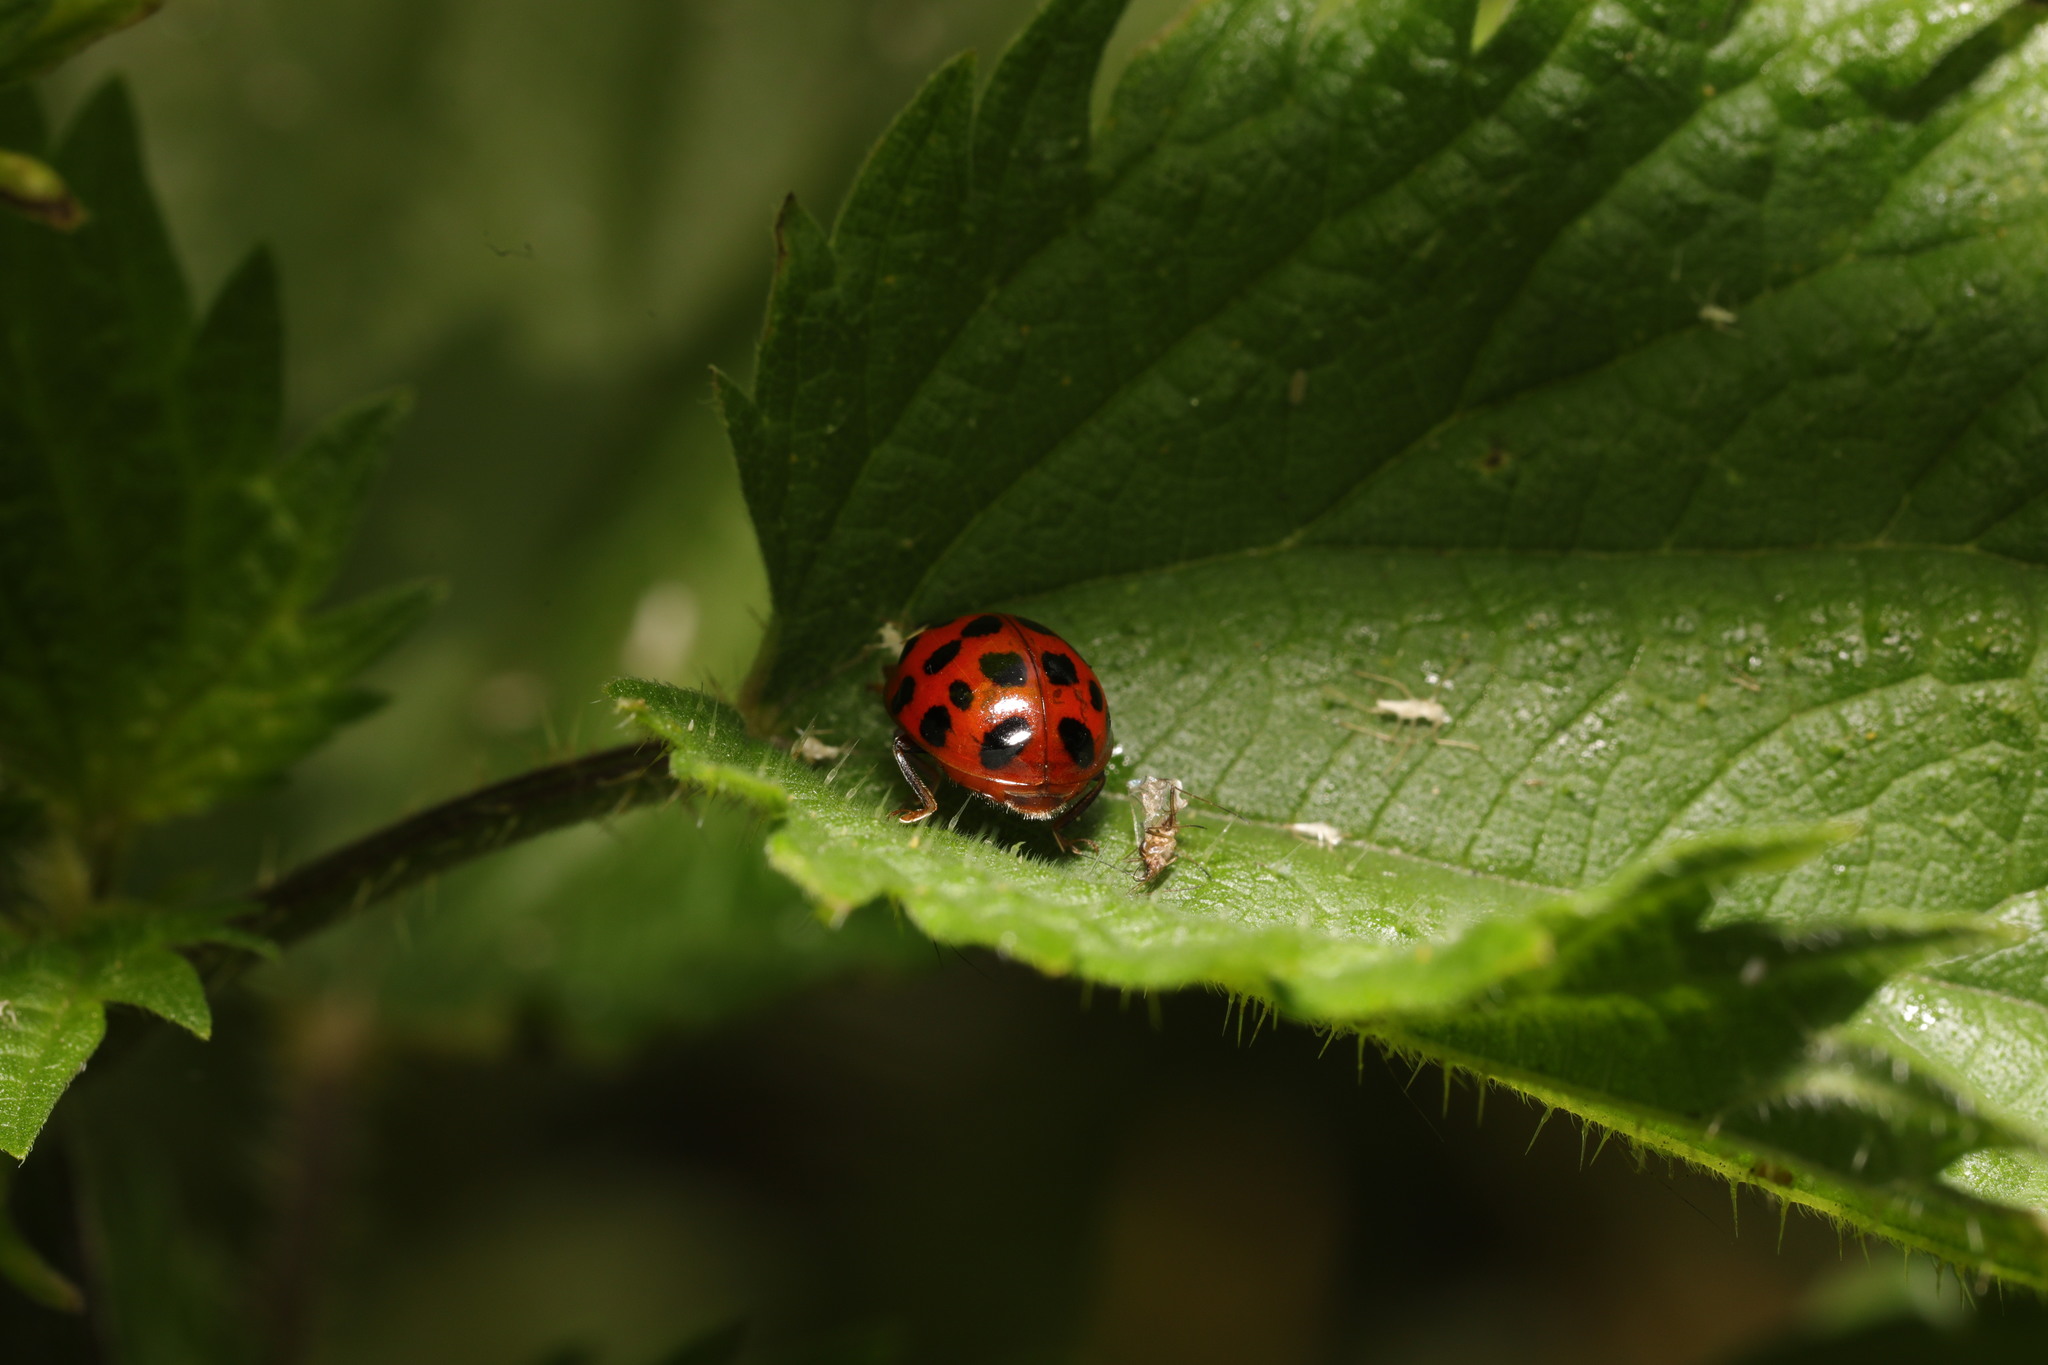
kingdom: Animalia
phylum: Arthropoda
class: Insecta
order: Coleoptera
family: Coccinellidae
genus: Harmonia
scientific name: Harmonia axyridis
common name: Harlequin ladybird
